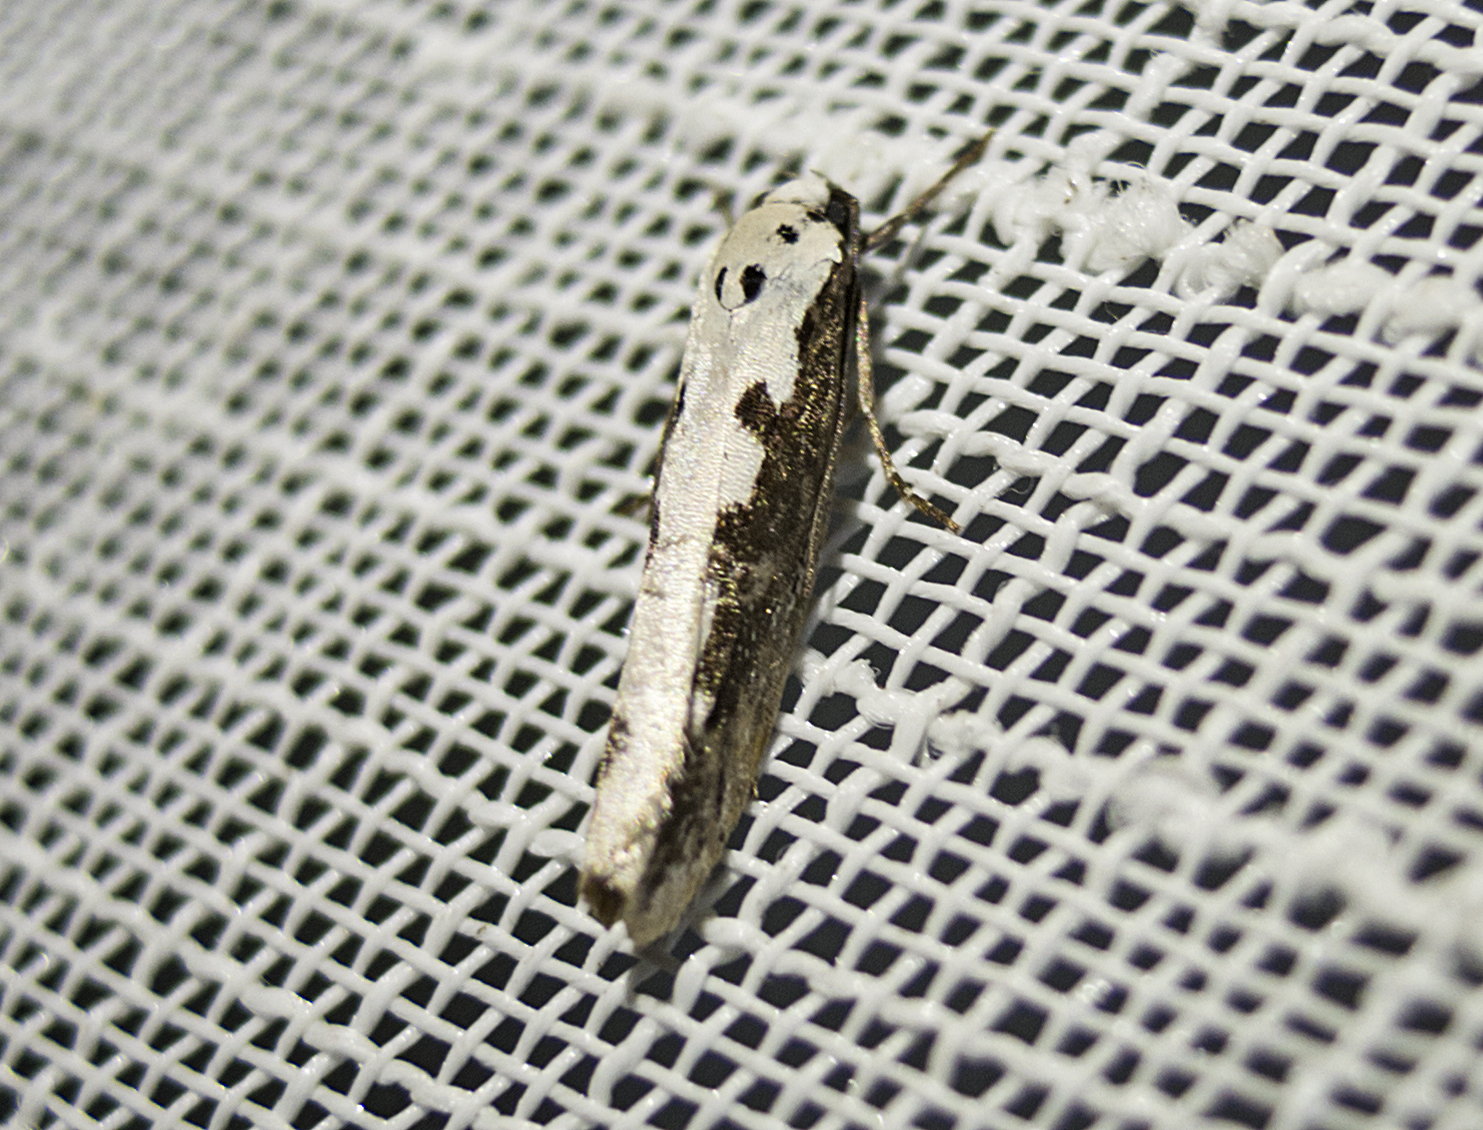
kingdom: Animalia
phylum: Arthropoda
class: Insecta
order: Lepidoptera
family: Ethmiidae
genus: Ethmia
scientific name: Ethmia bipunctella
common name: Bordered ermel
